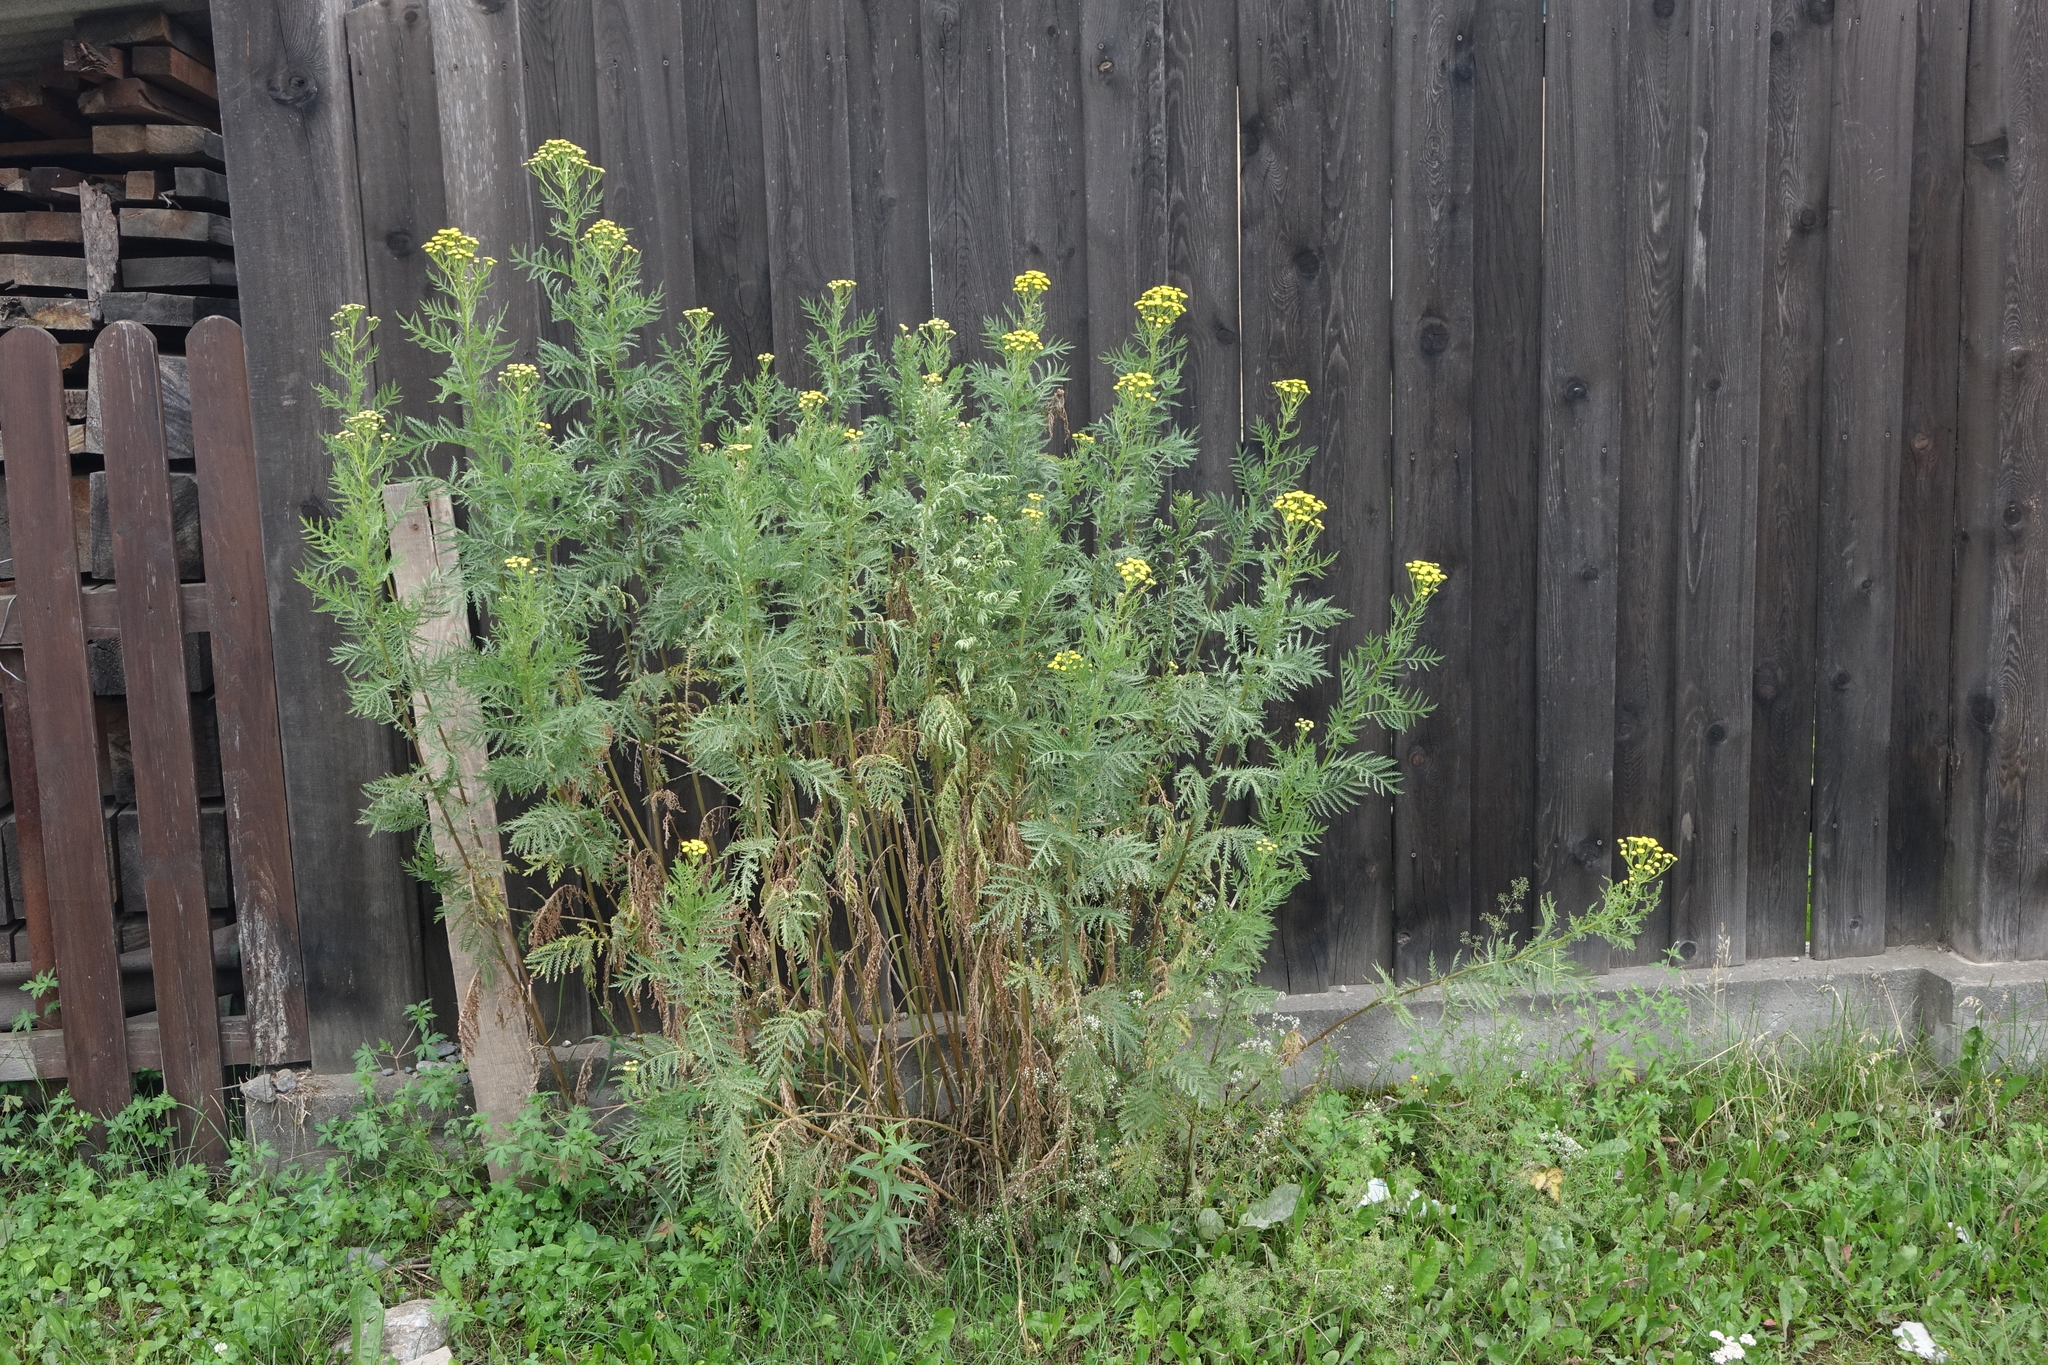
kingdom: Plantae
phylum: Tracheophyta
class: Magnoliopsida
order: Asterales
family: Asteraceae
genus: Tanacetum
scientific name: Tanacetum vulgare
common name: Common tansy
